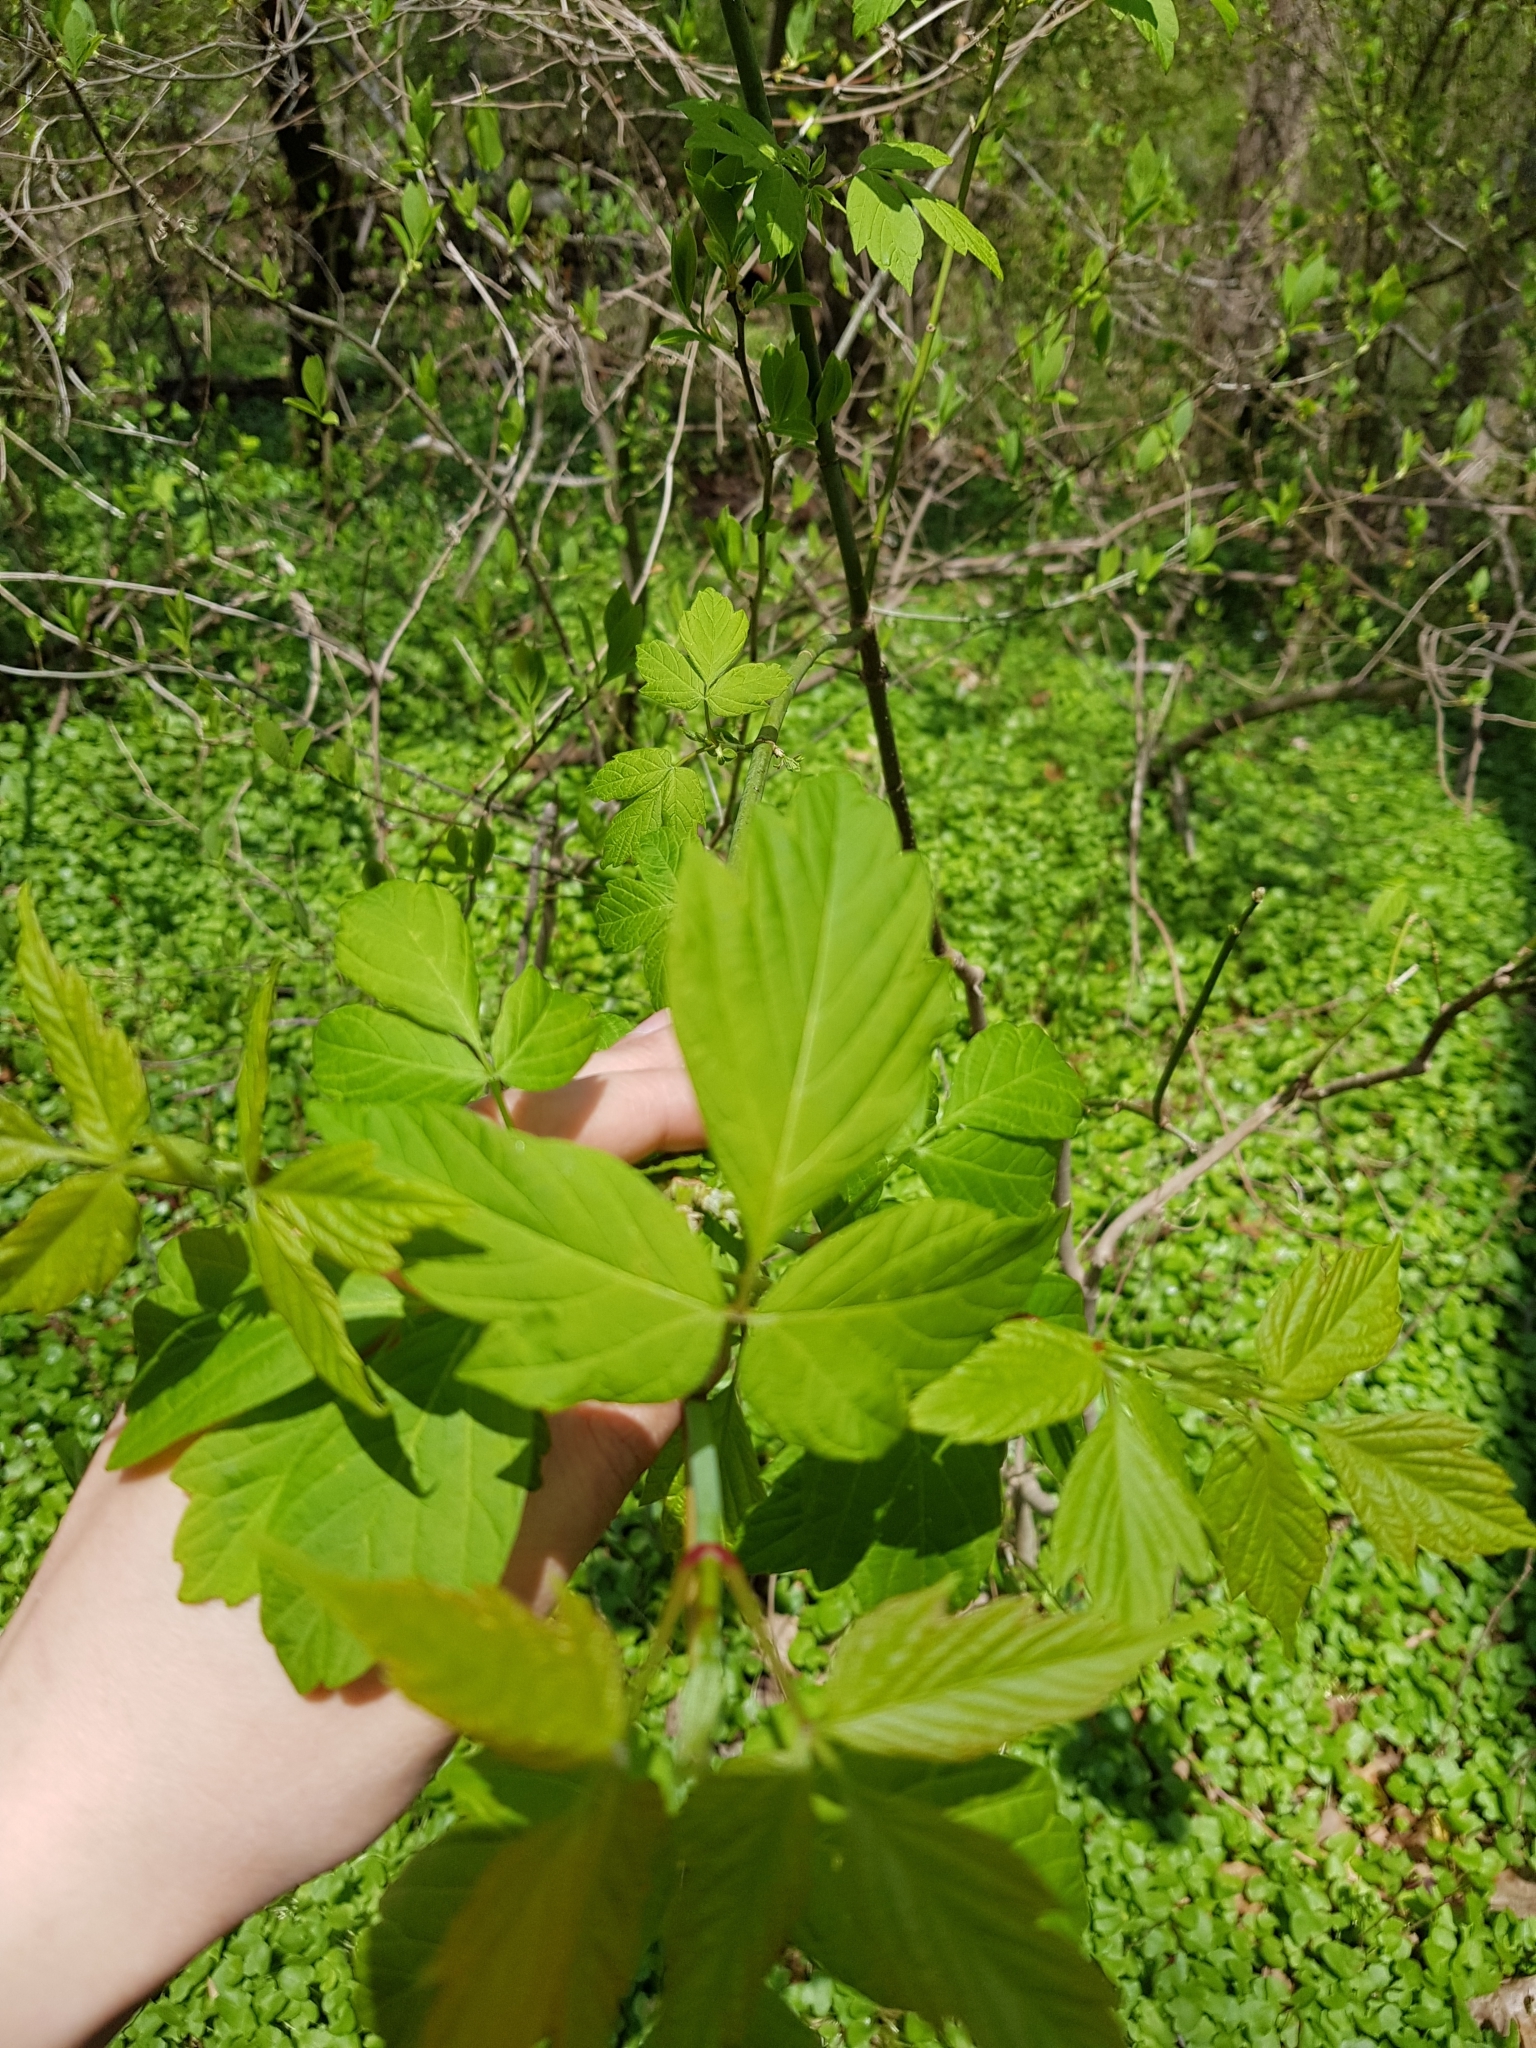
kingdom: Plantae
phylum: Tracheophyta
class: Magnoliopsida
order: Sapindales
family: Sapindaceae
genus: Acer
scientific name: Acer negundo
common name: Ashleaf maple
